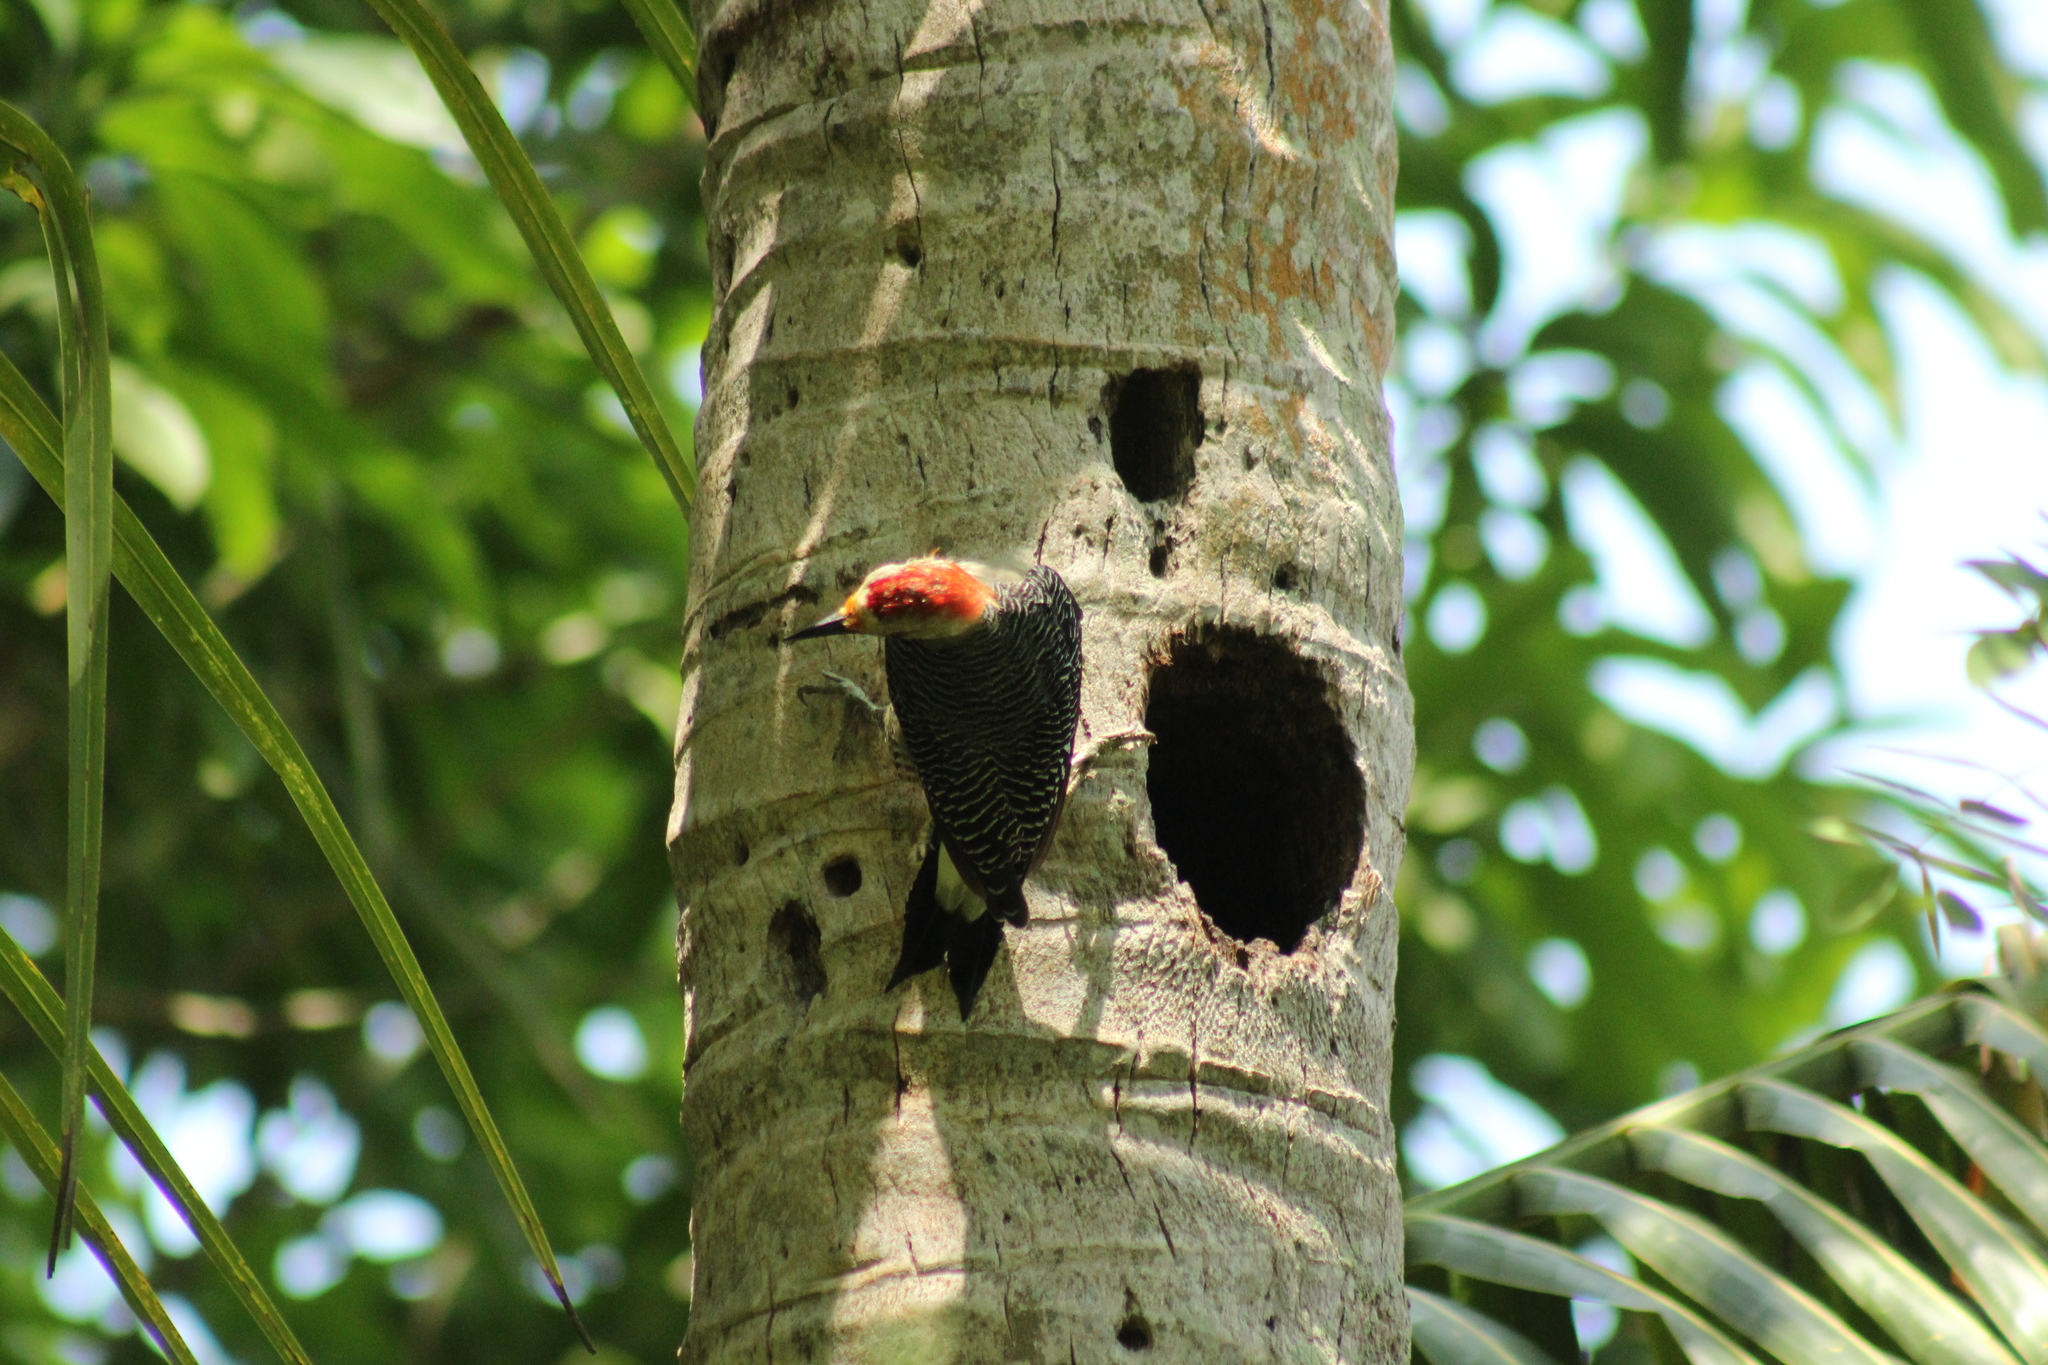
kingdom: Animalia
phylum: Chordata
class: Aves
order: Piciformes
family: Picidae
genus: Melanerpes
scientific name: Melanerpes aurifrons
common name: Golden-fronted woodpecker
